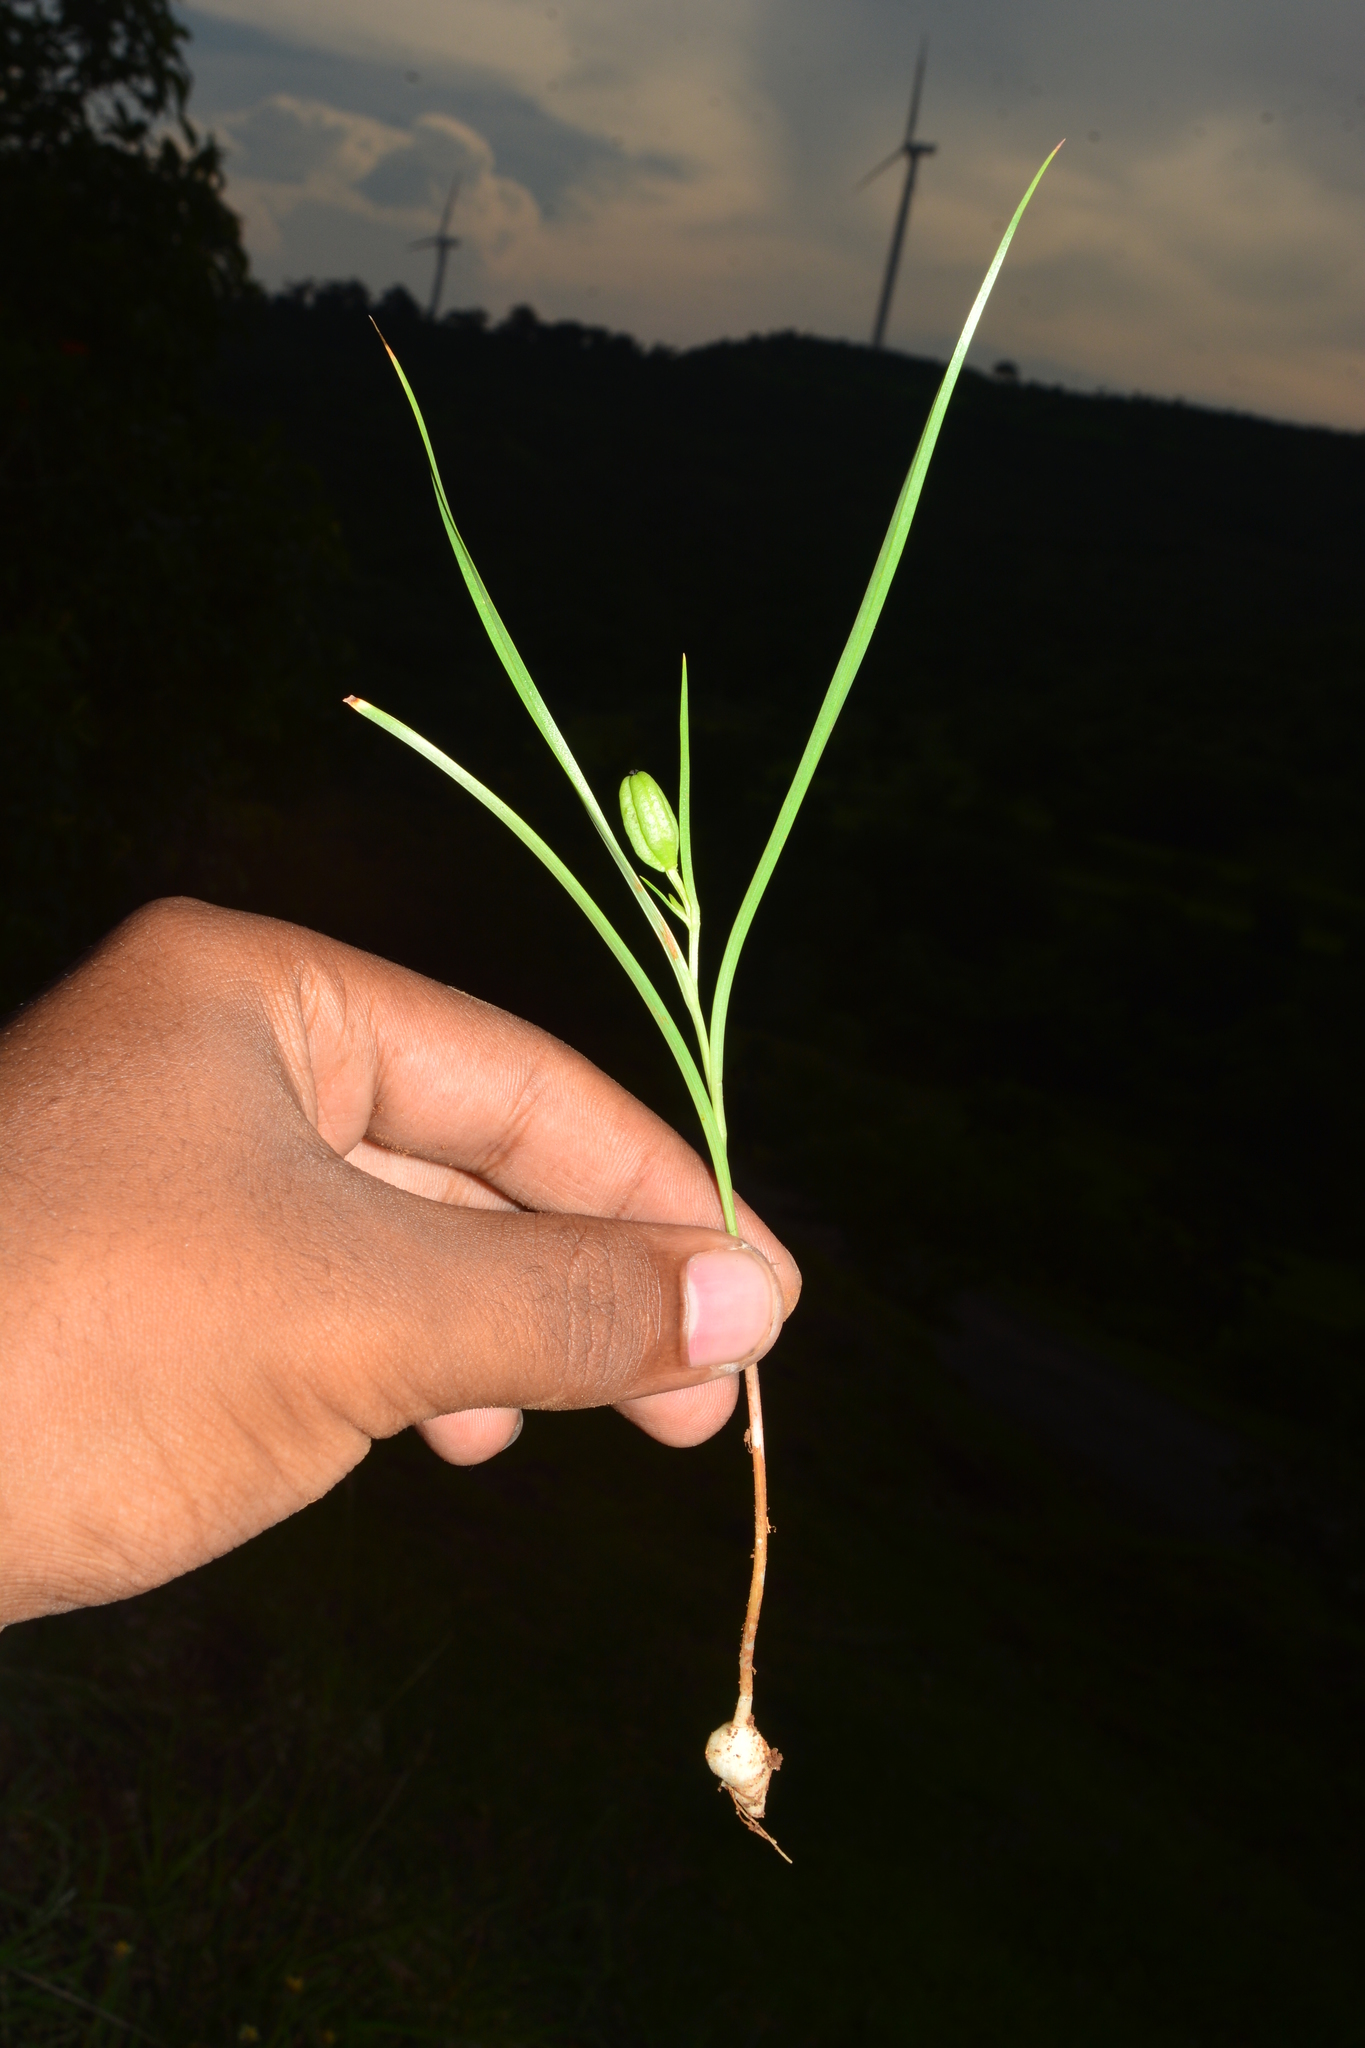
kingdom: Plantae
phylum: Tracheophyta
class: Liliopsida
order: Liliales
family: Colchicaceae
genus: Iphigenia
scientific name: Iphigenia magnifica
